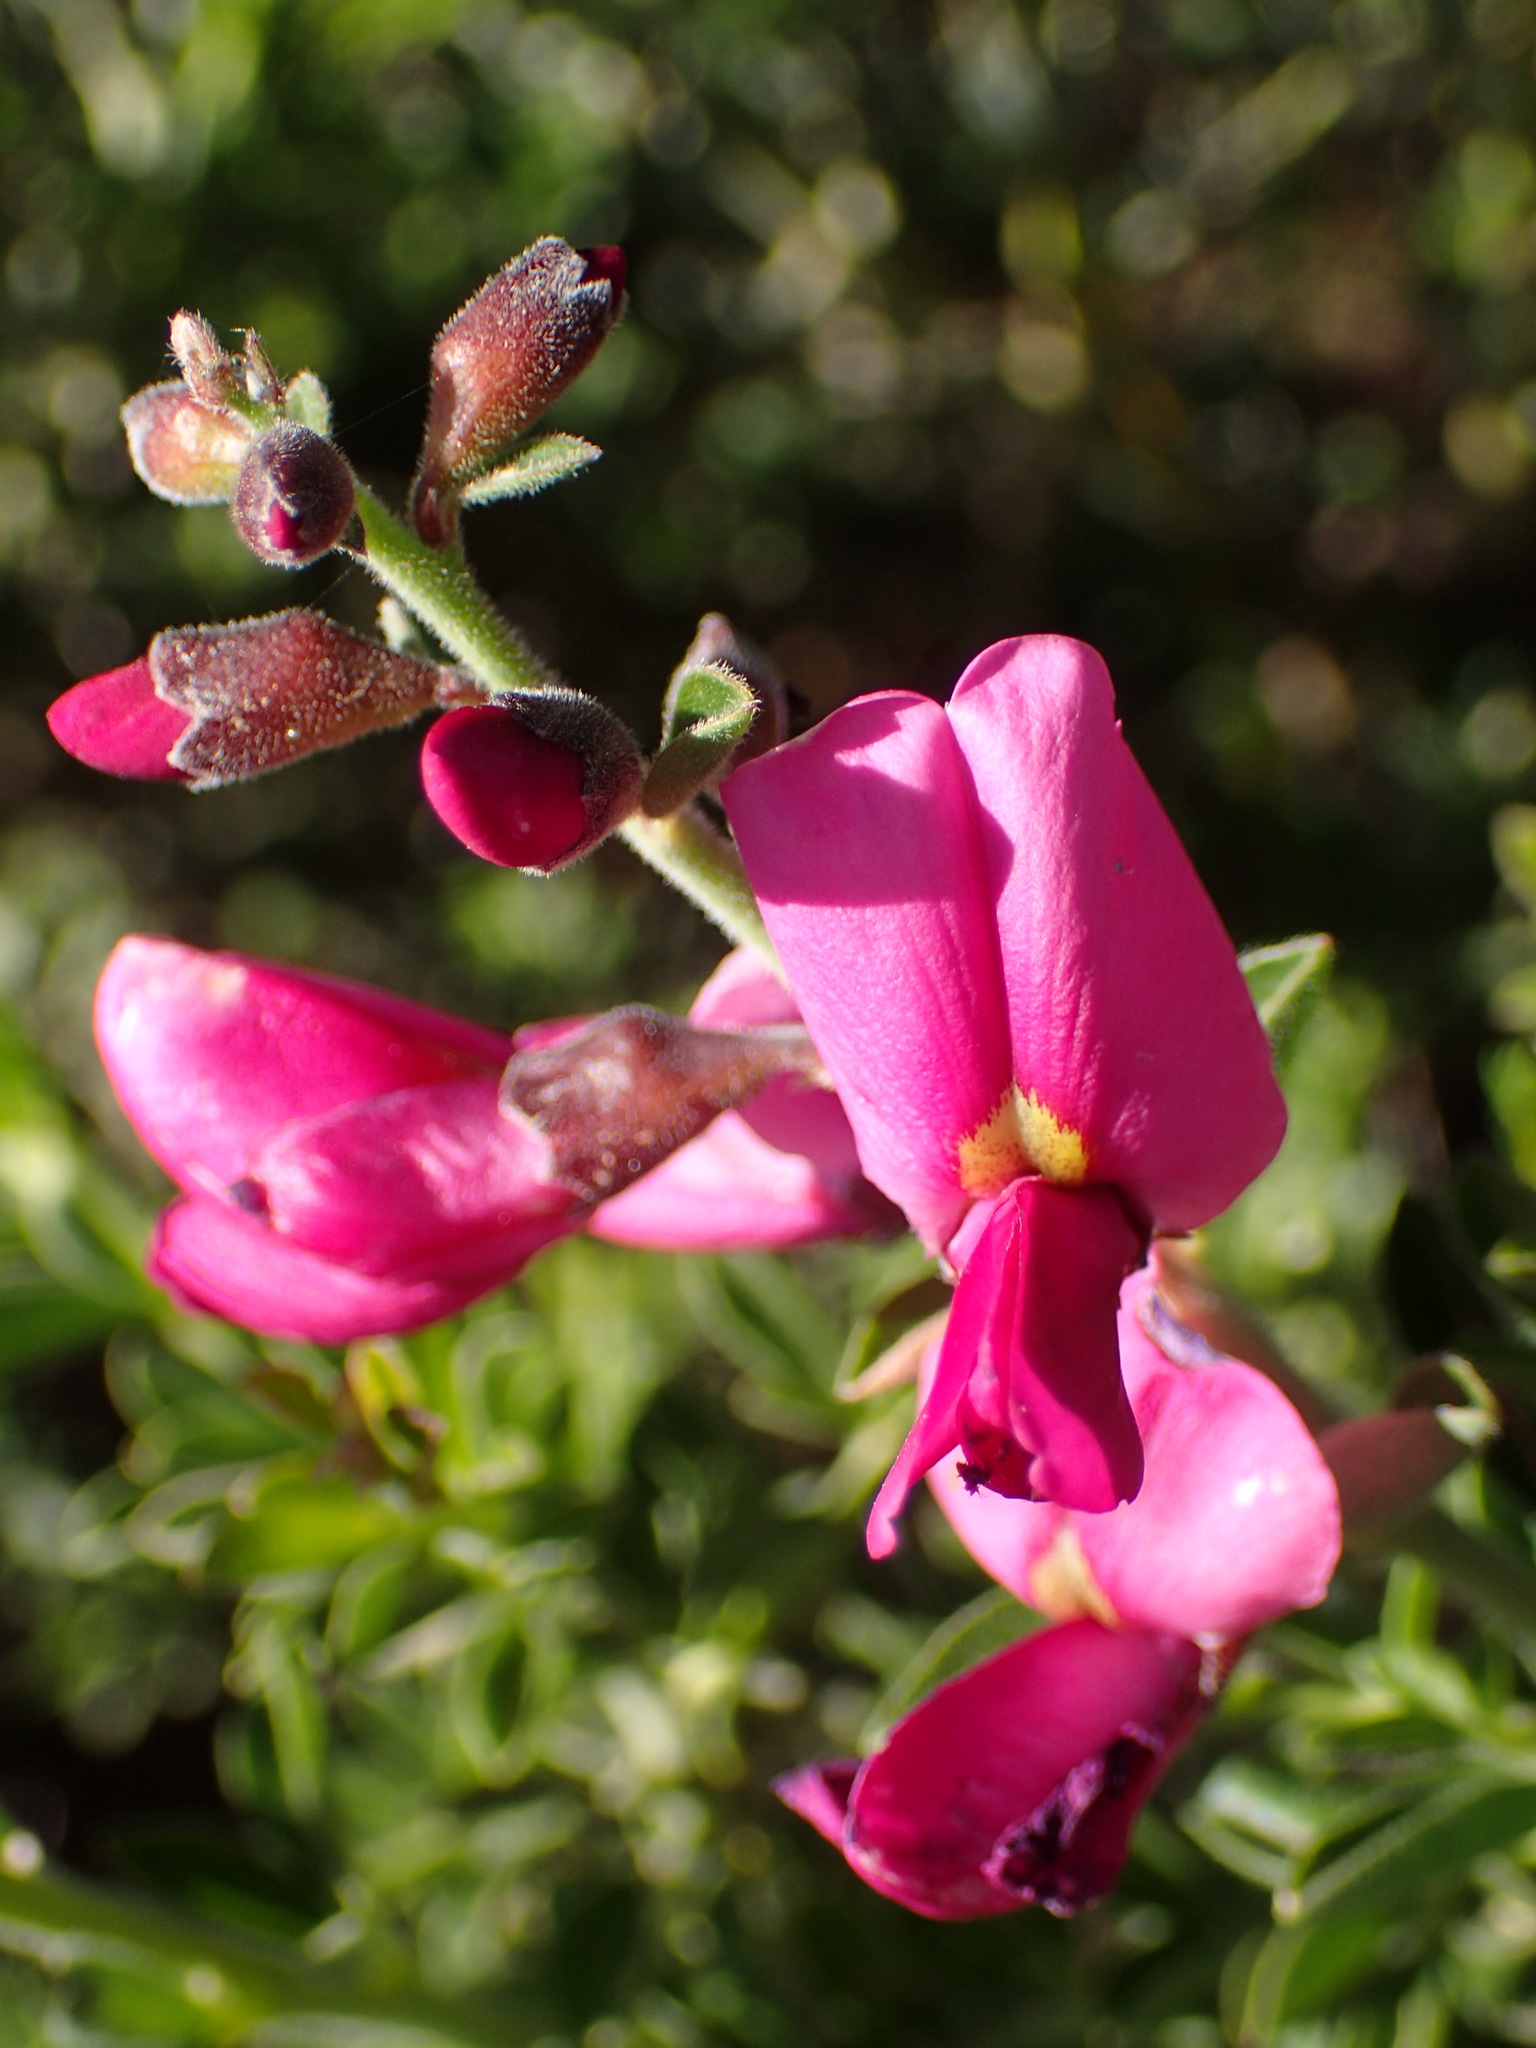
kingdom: Plantae
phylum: Tracheophyta
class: Magnoliopsida
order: Fabales
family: Fabaceae
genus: Pickeringia
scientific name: Pickeringia montana
